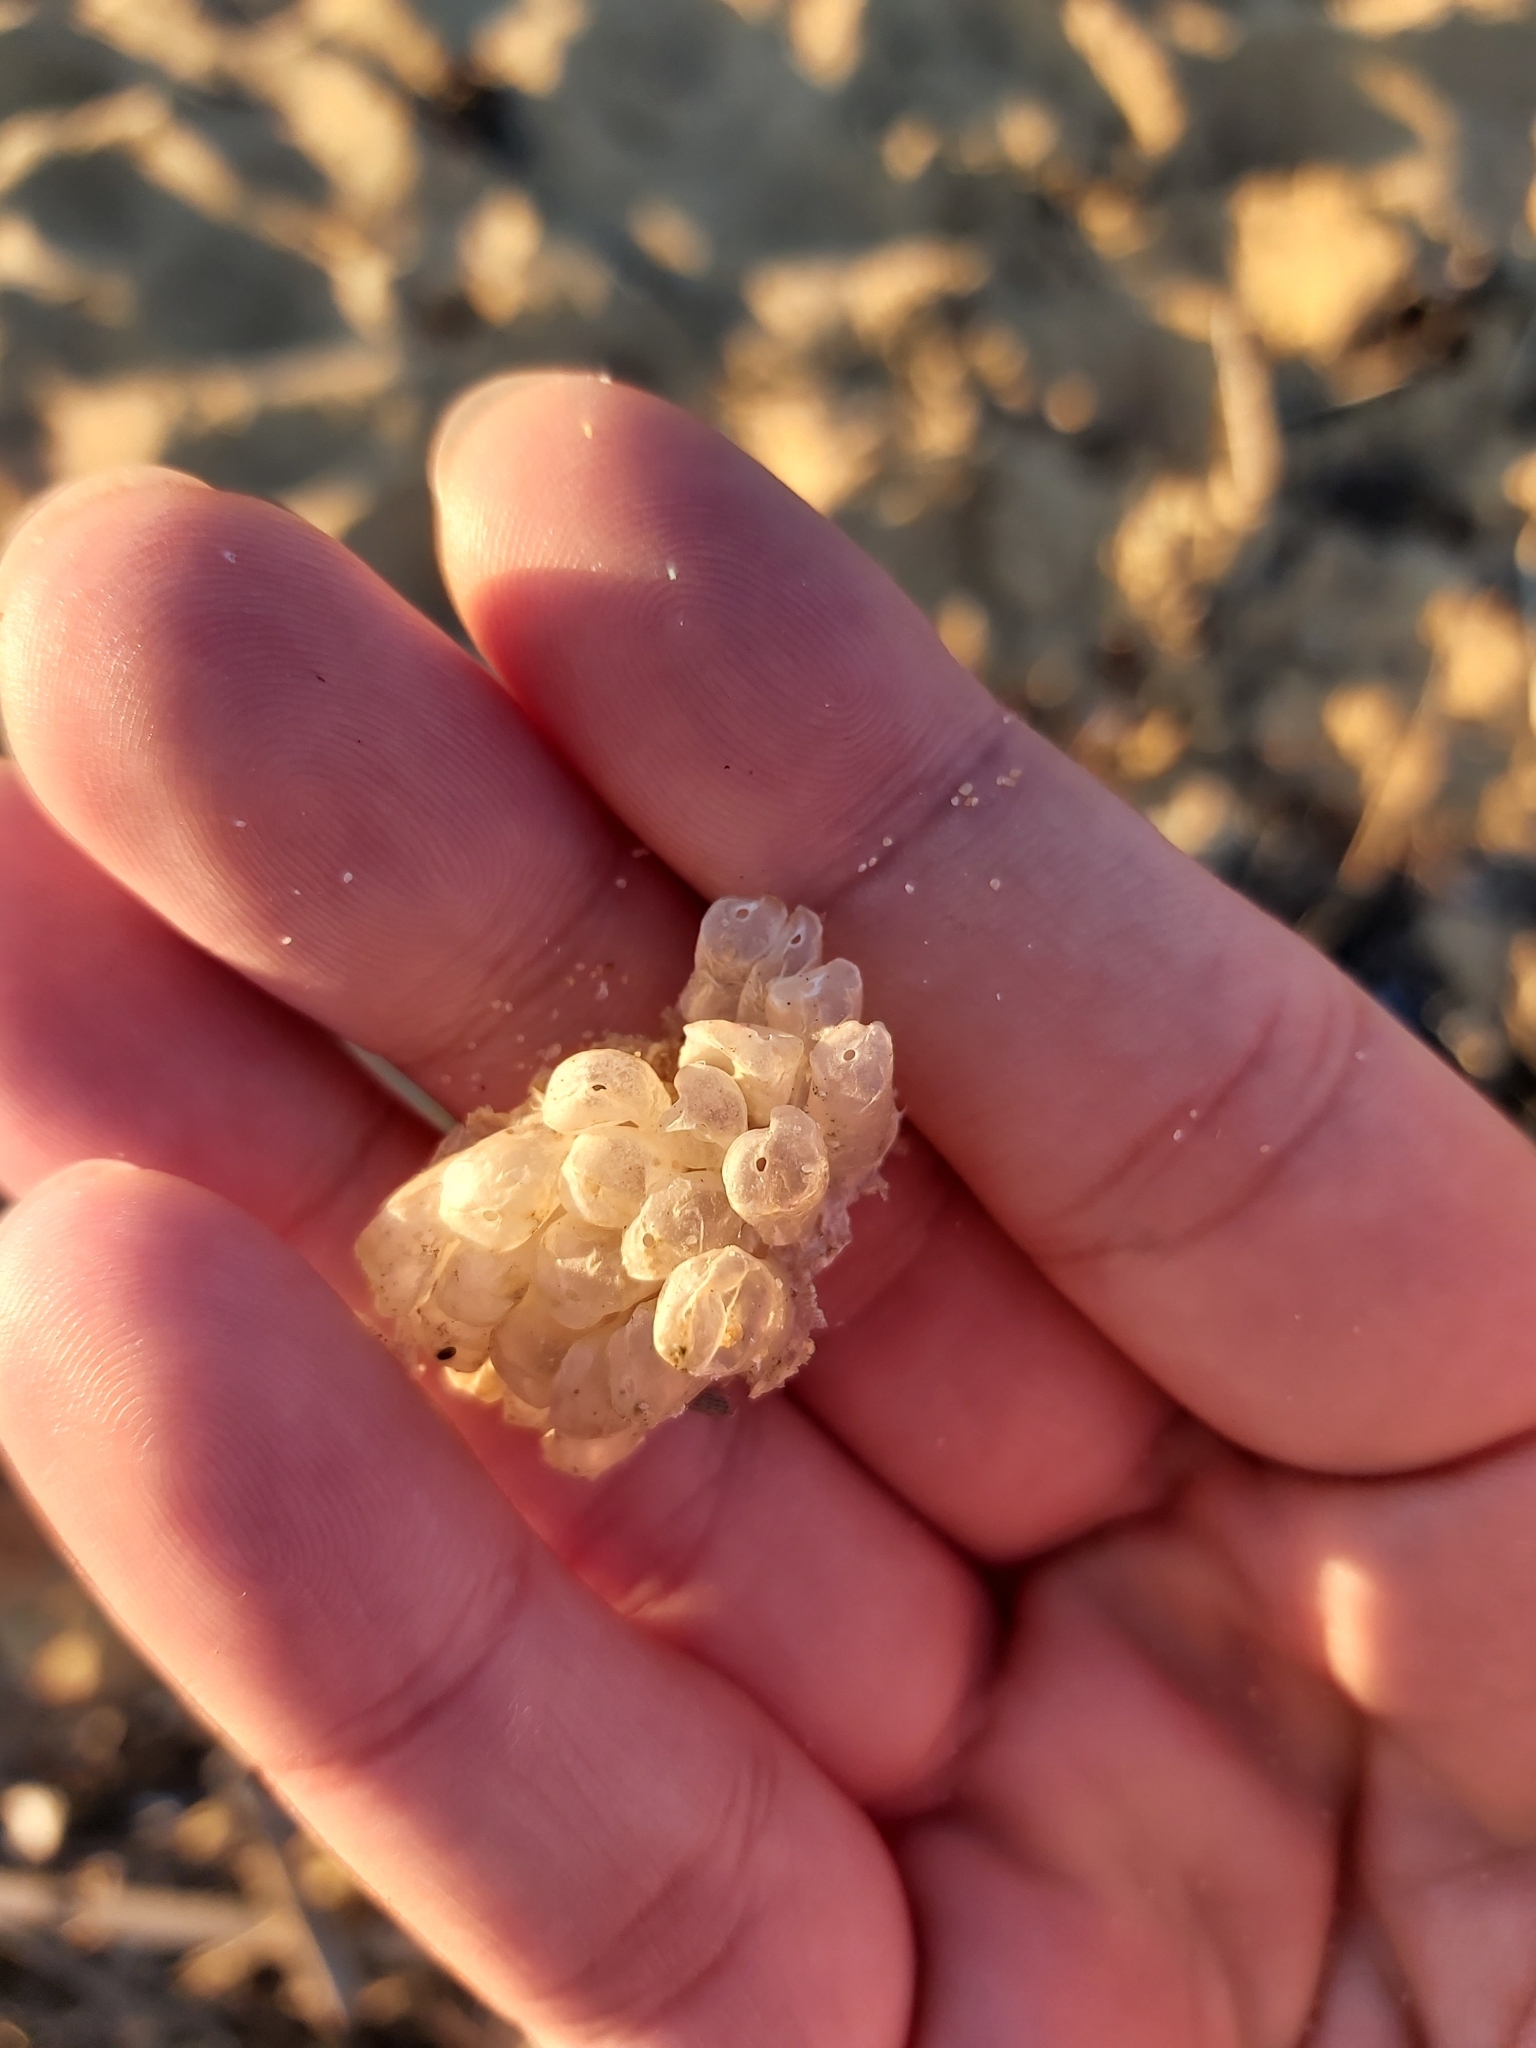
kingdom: Animalia
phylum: Mollusca
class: Gastropoda
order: Neogastropoda
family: Muricidae
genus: Dicathais
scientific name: Dicathais orbita
